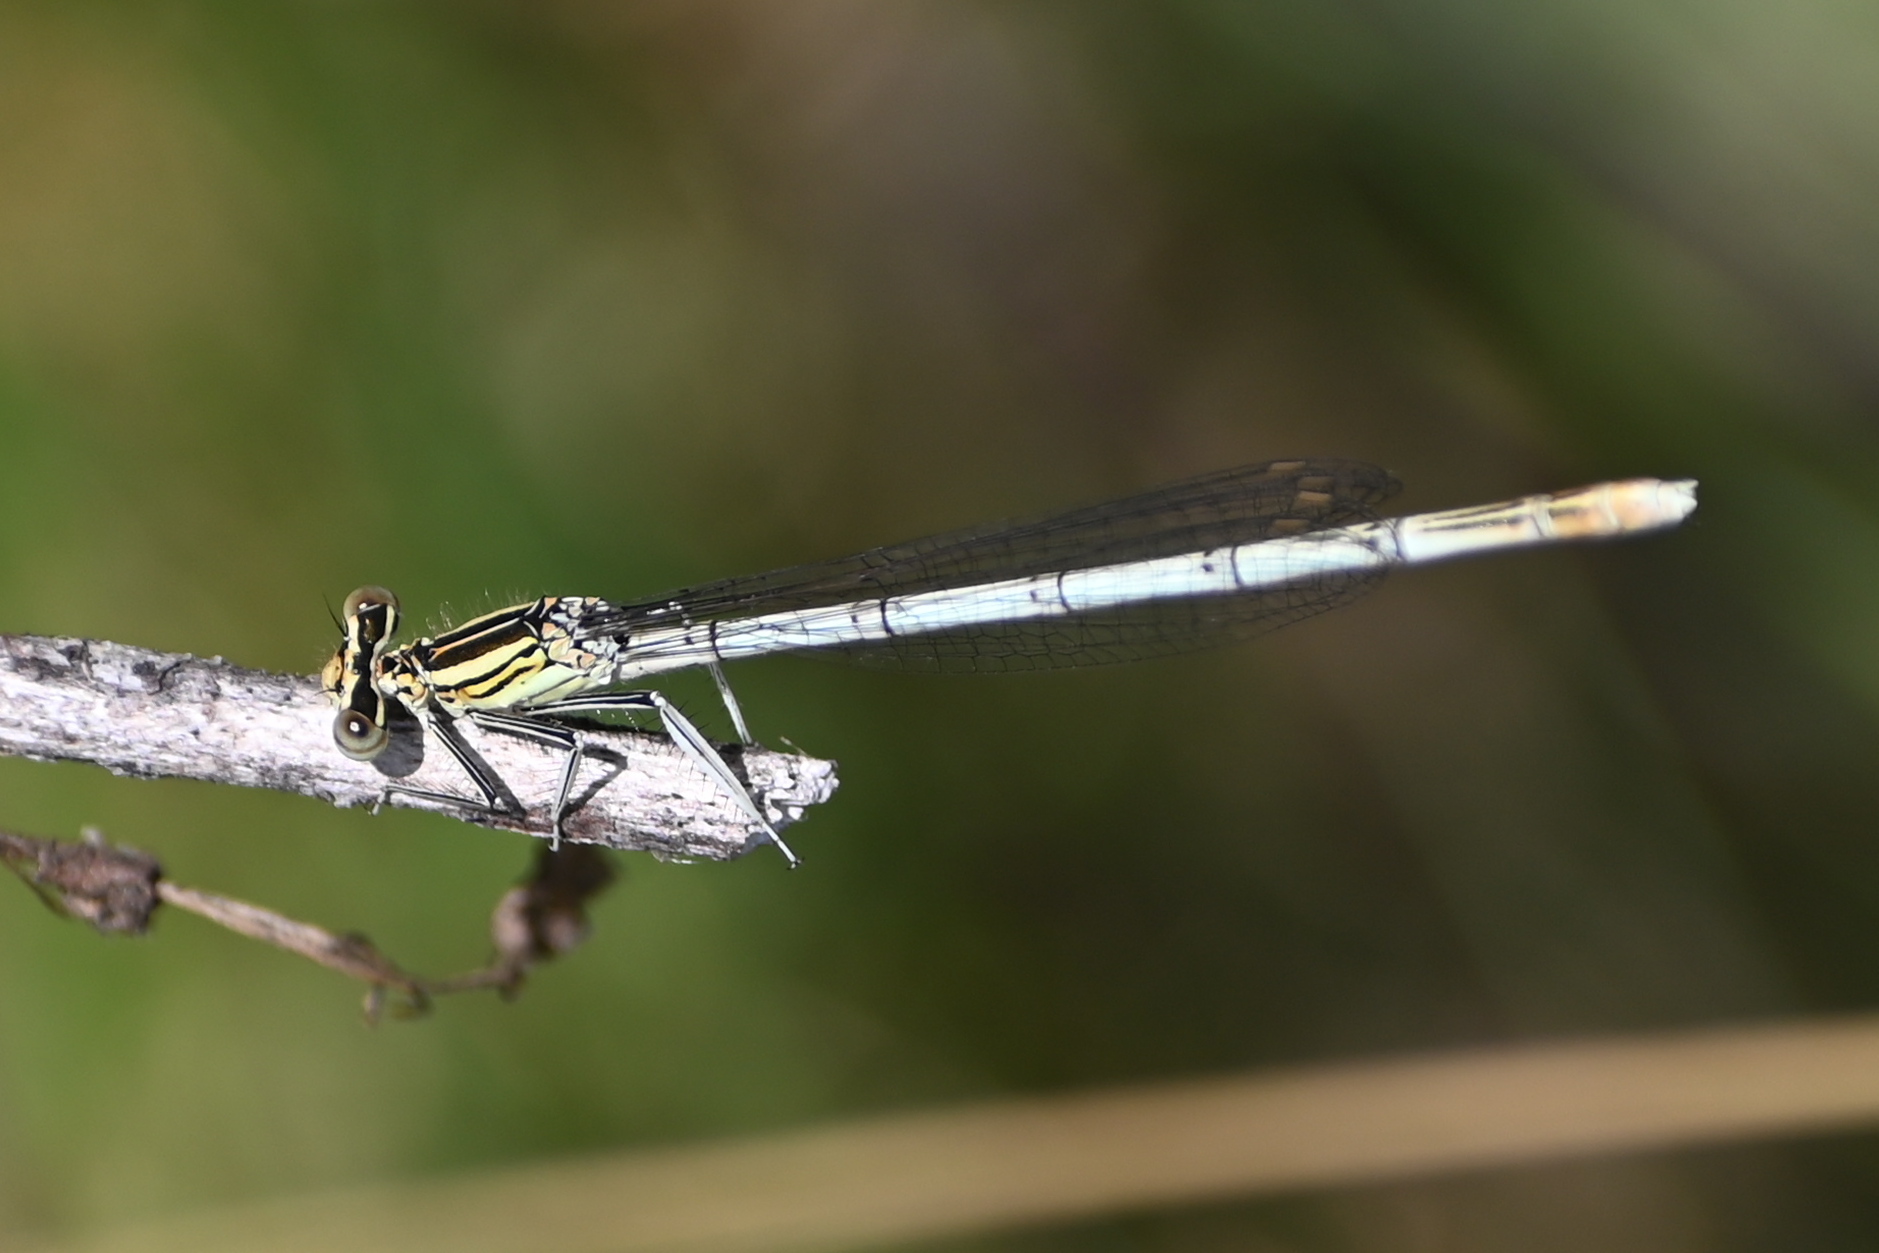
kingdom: Animalia
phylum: Arthropoda
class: Insecta
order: Odonata
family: Platycnemididae
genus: Platycnemis
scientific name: Platycnemis pennipes
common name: White-legged damselfly
